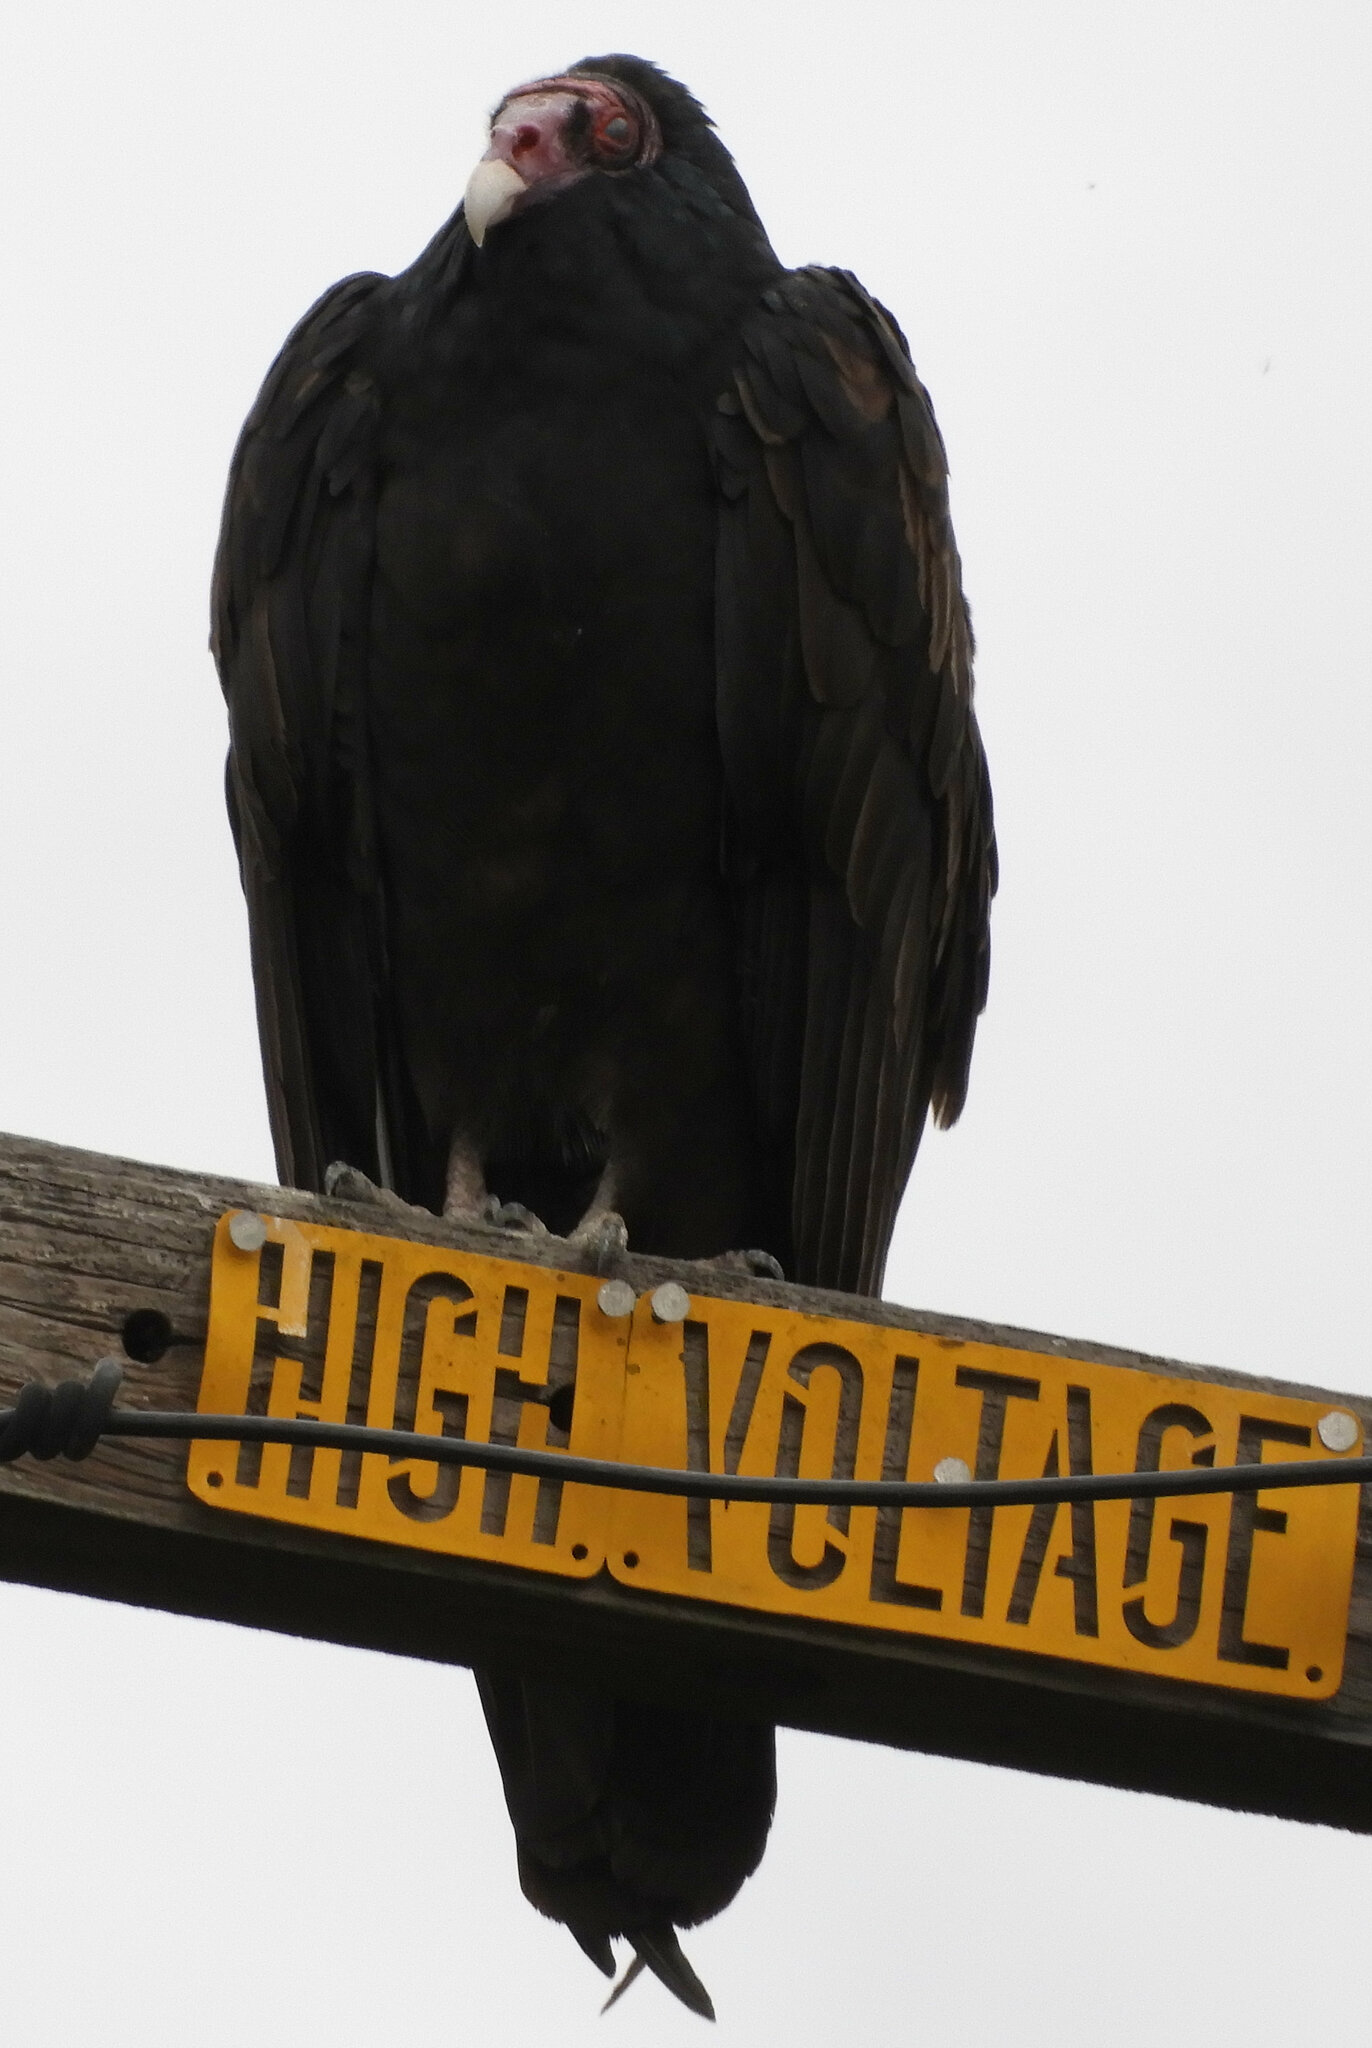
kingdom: Animalia
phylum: Chordata
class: Aves
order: Accipitriformes
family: Cathartidae
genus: Cathartes
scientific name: Cathartes aura
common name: Turkey vulture
